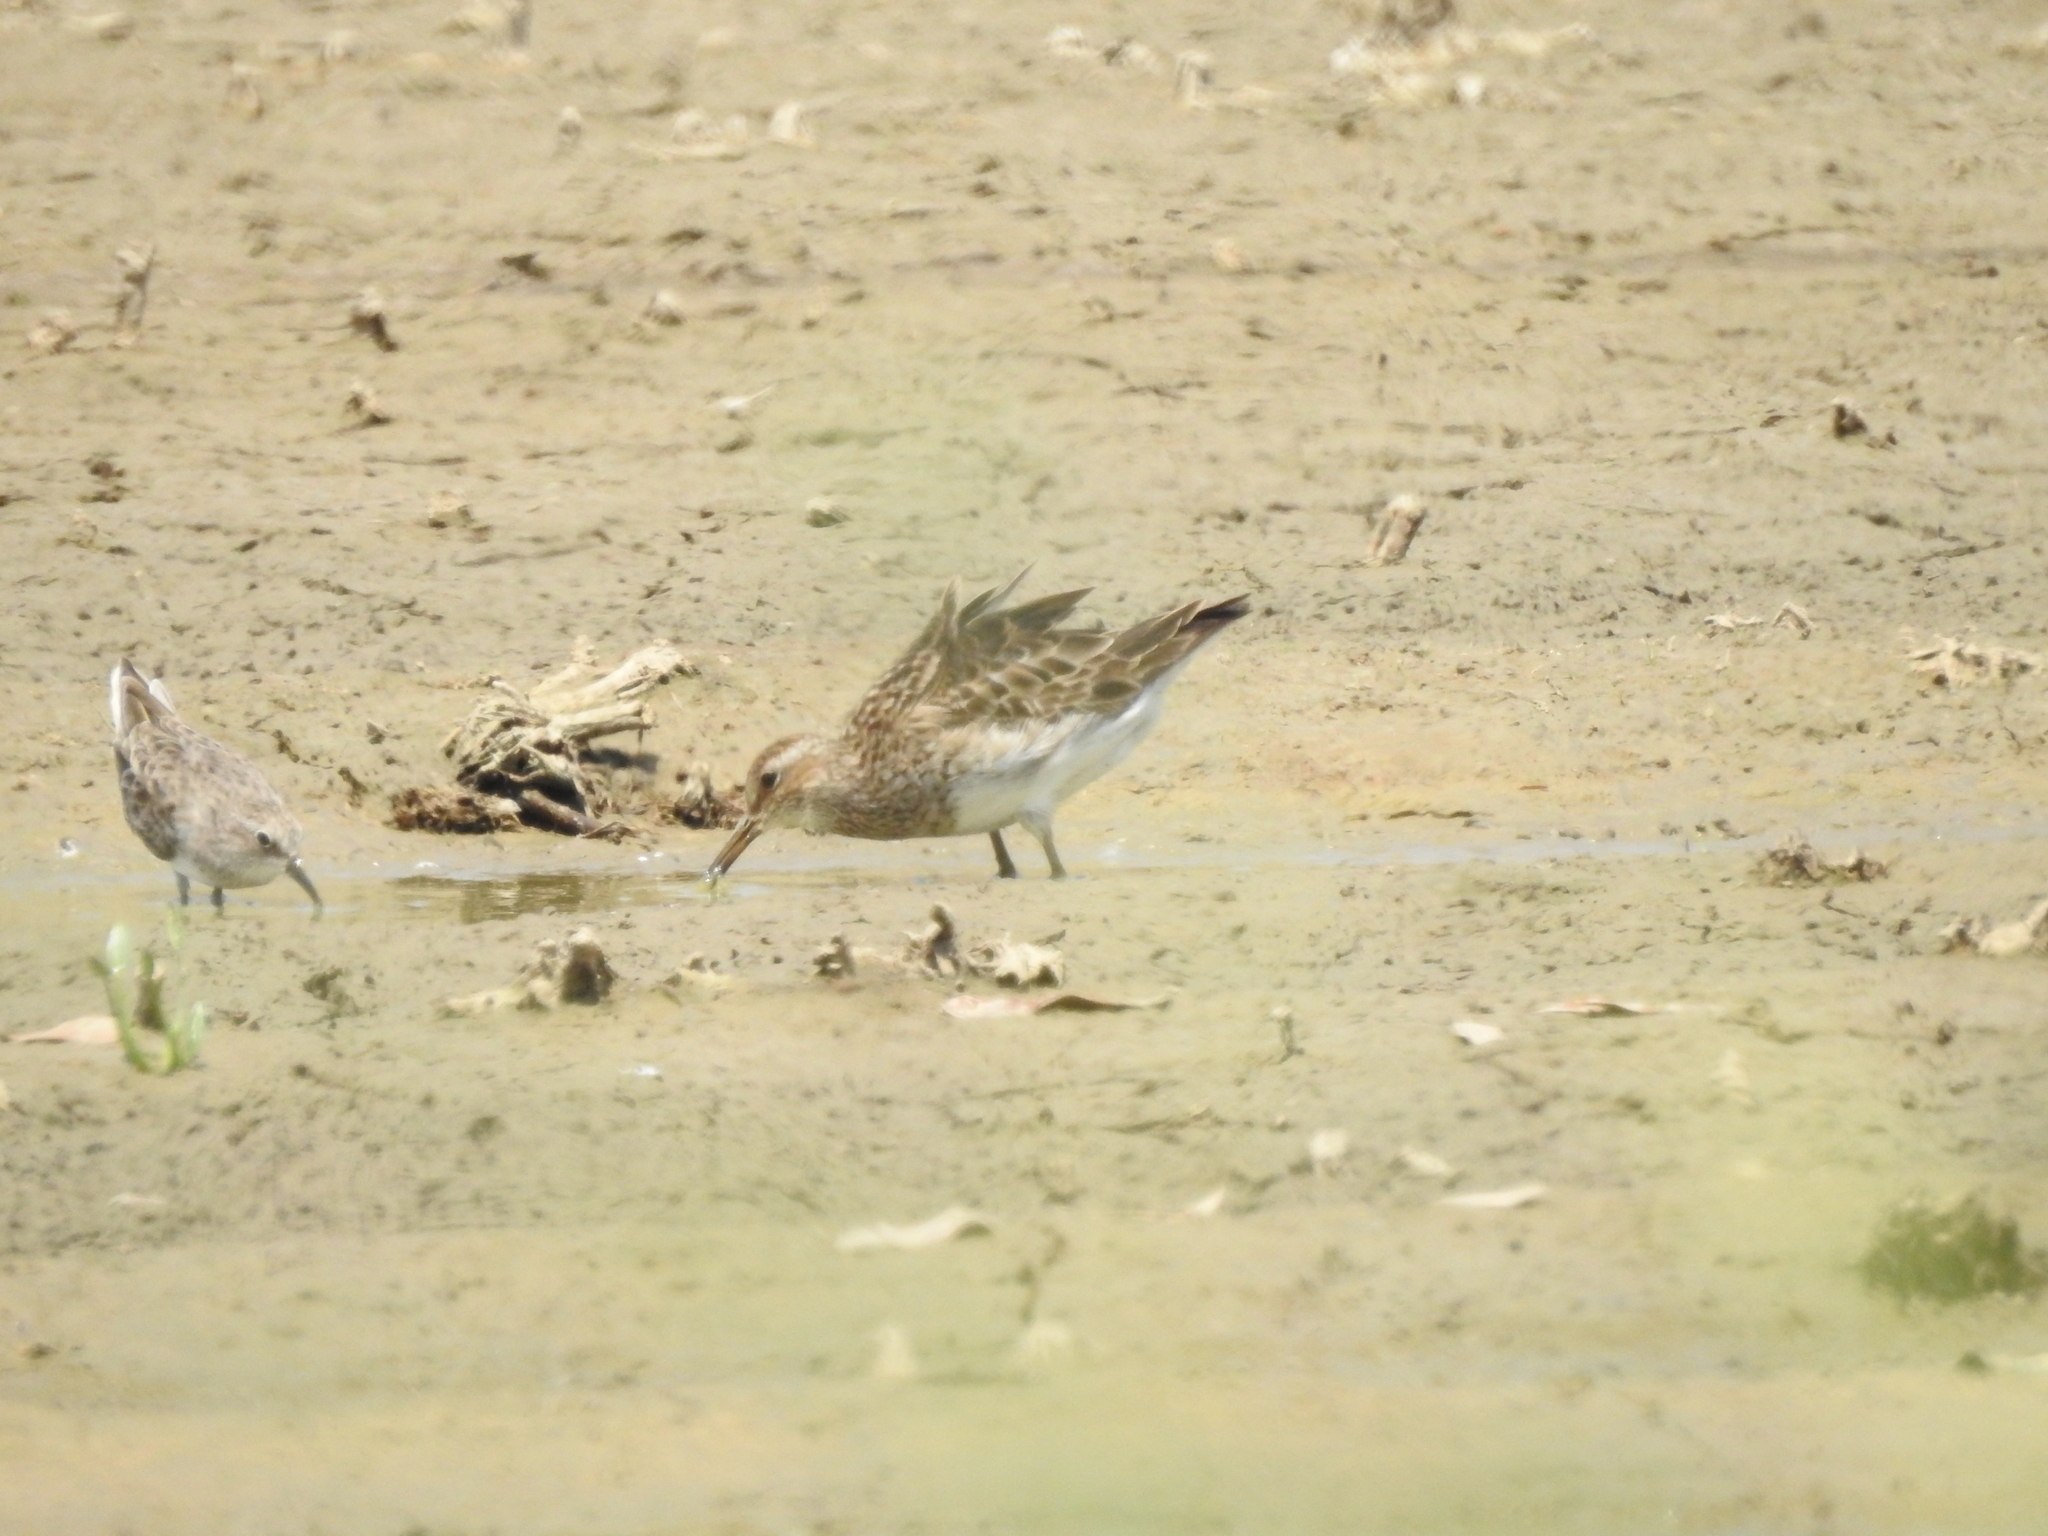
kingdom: Animalia
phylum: Chordata
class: Aves
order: Charadriiformes
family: Scolopacidae
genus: Calidris
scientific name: Calidris melanotos
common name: Pectoral sandpiper
